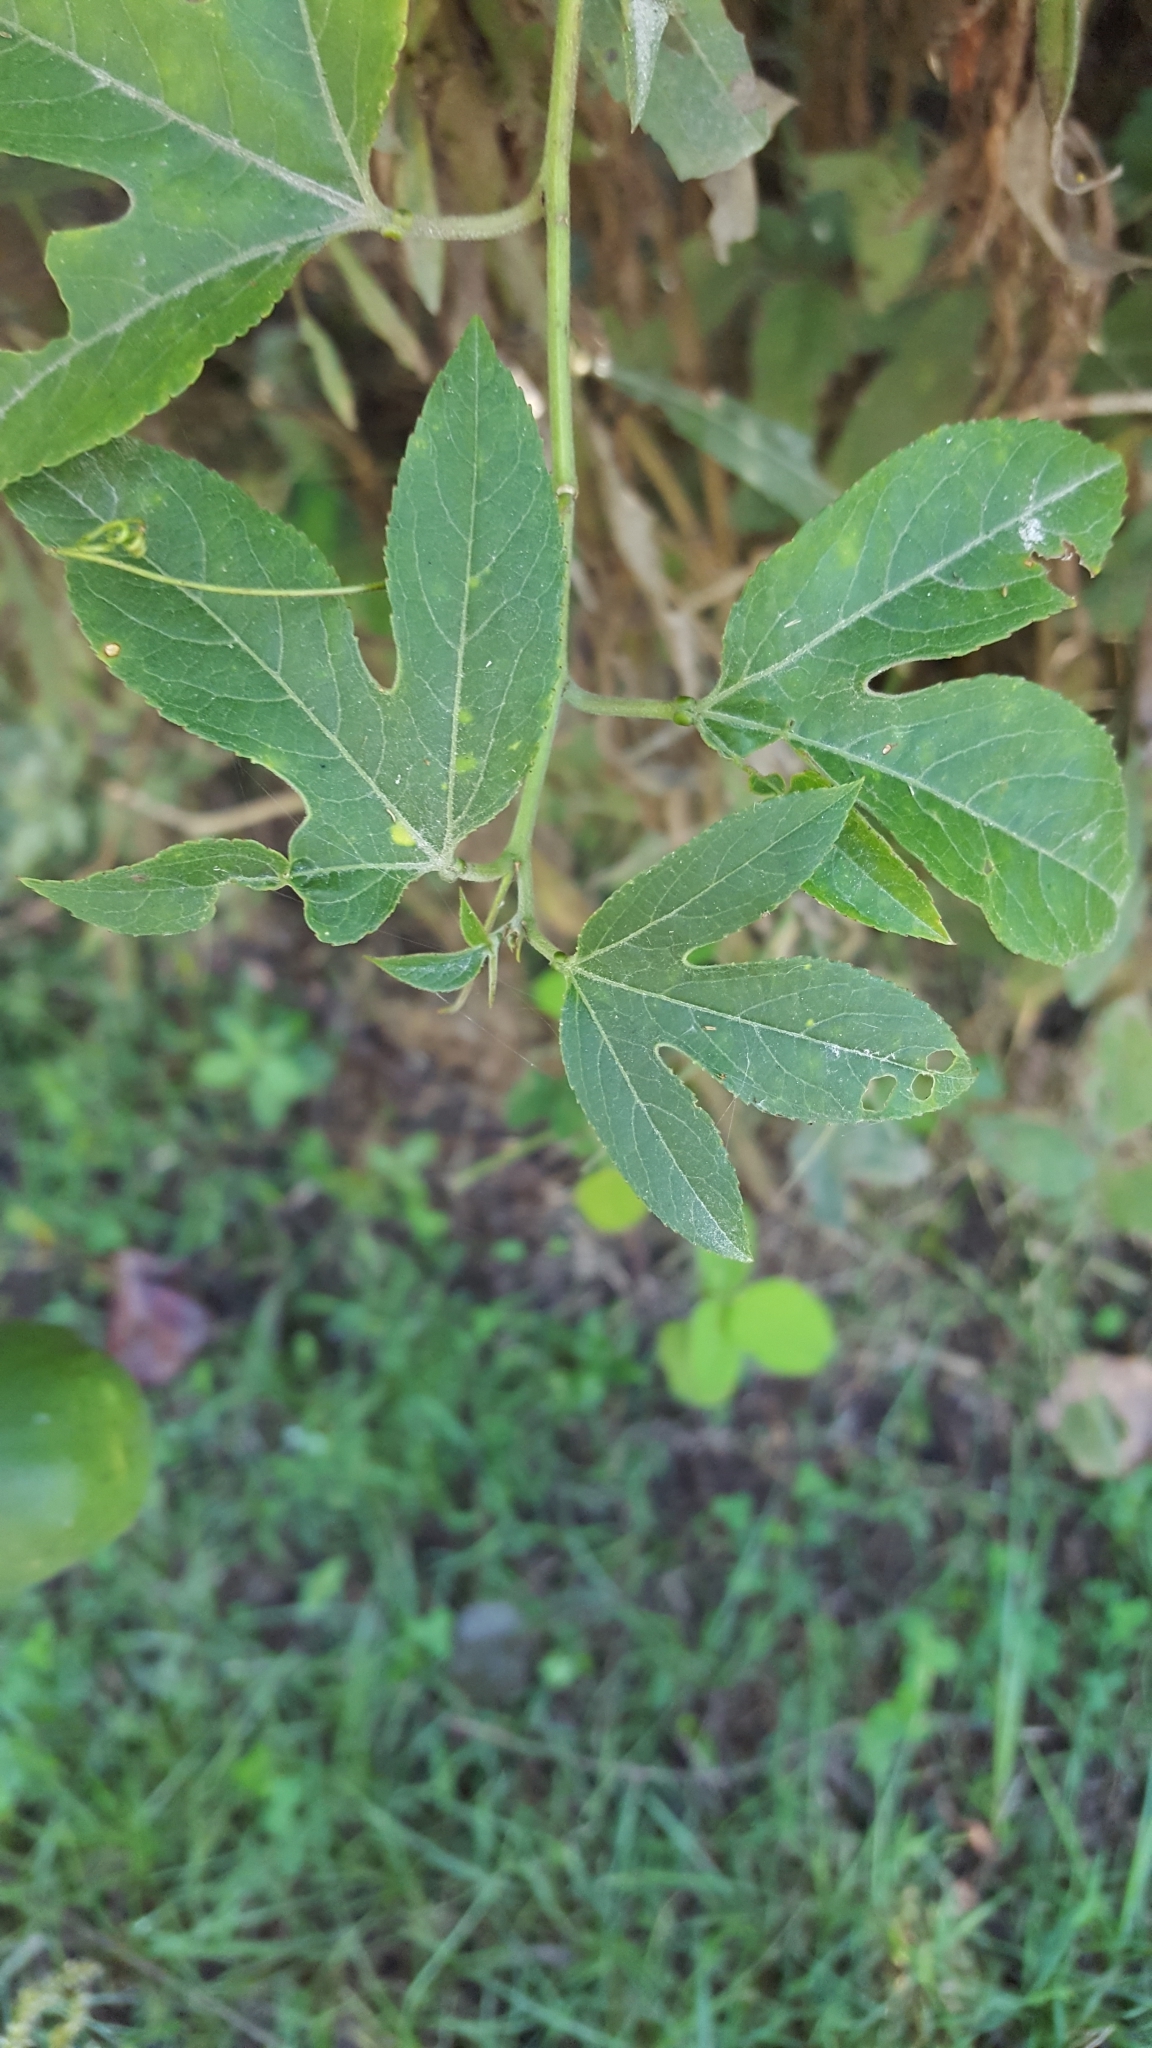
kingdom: Plantae
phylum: Tracheophyta
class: Magnoliopsida
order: Malpighiales
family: Passifloraceae
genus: Passiflora
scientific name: Passiflora incarnata
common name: Apricot-vine
